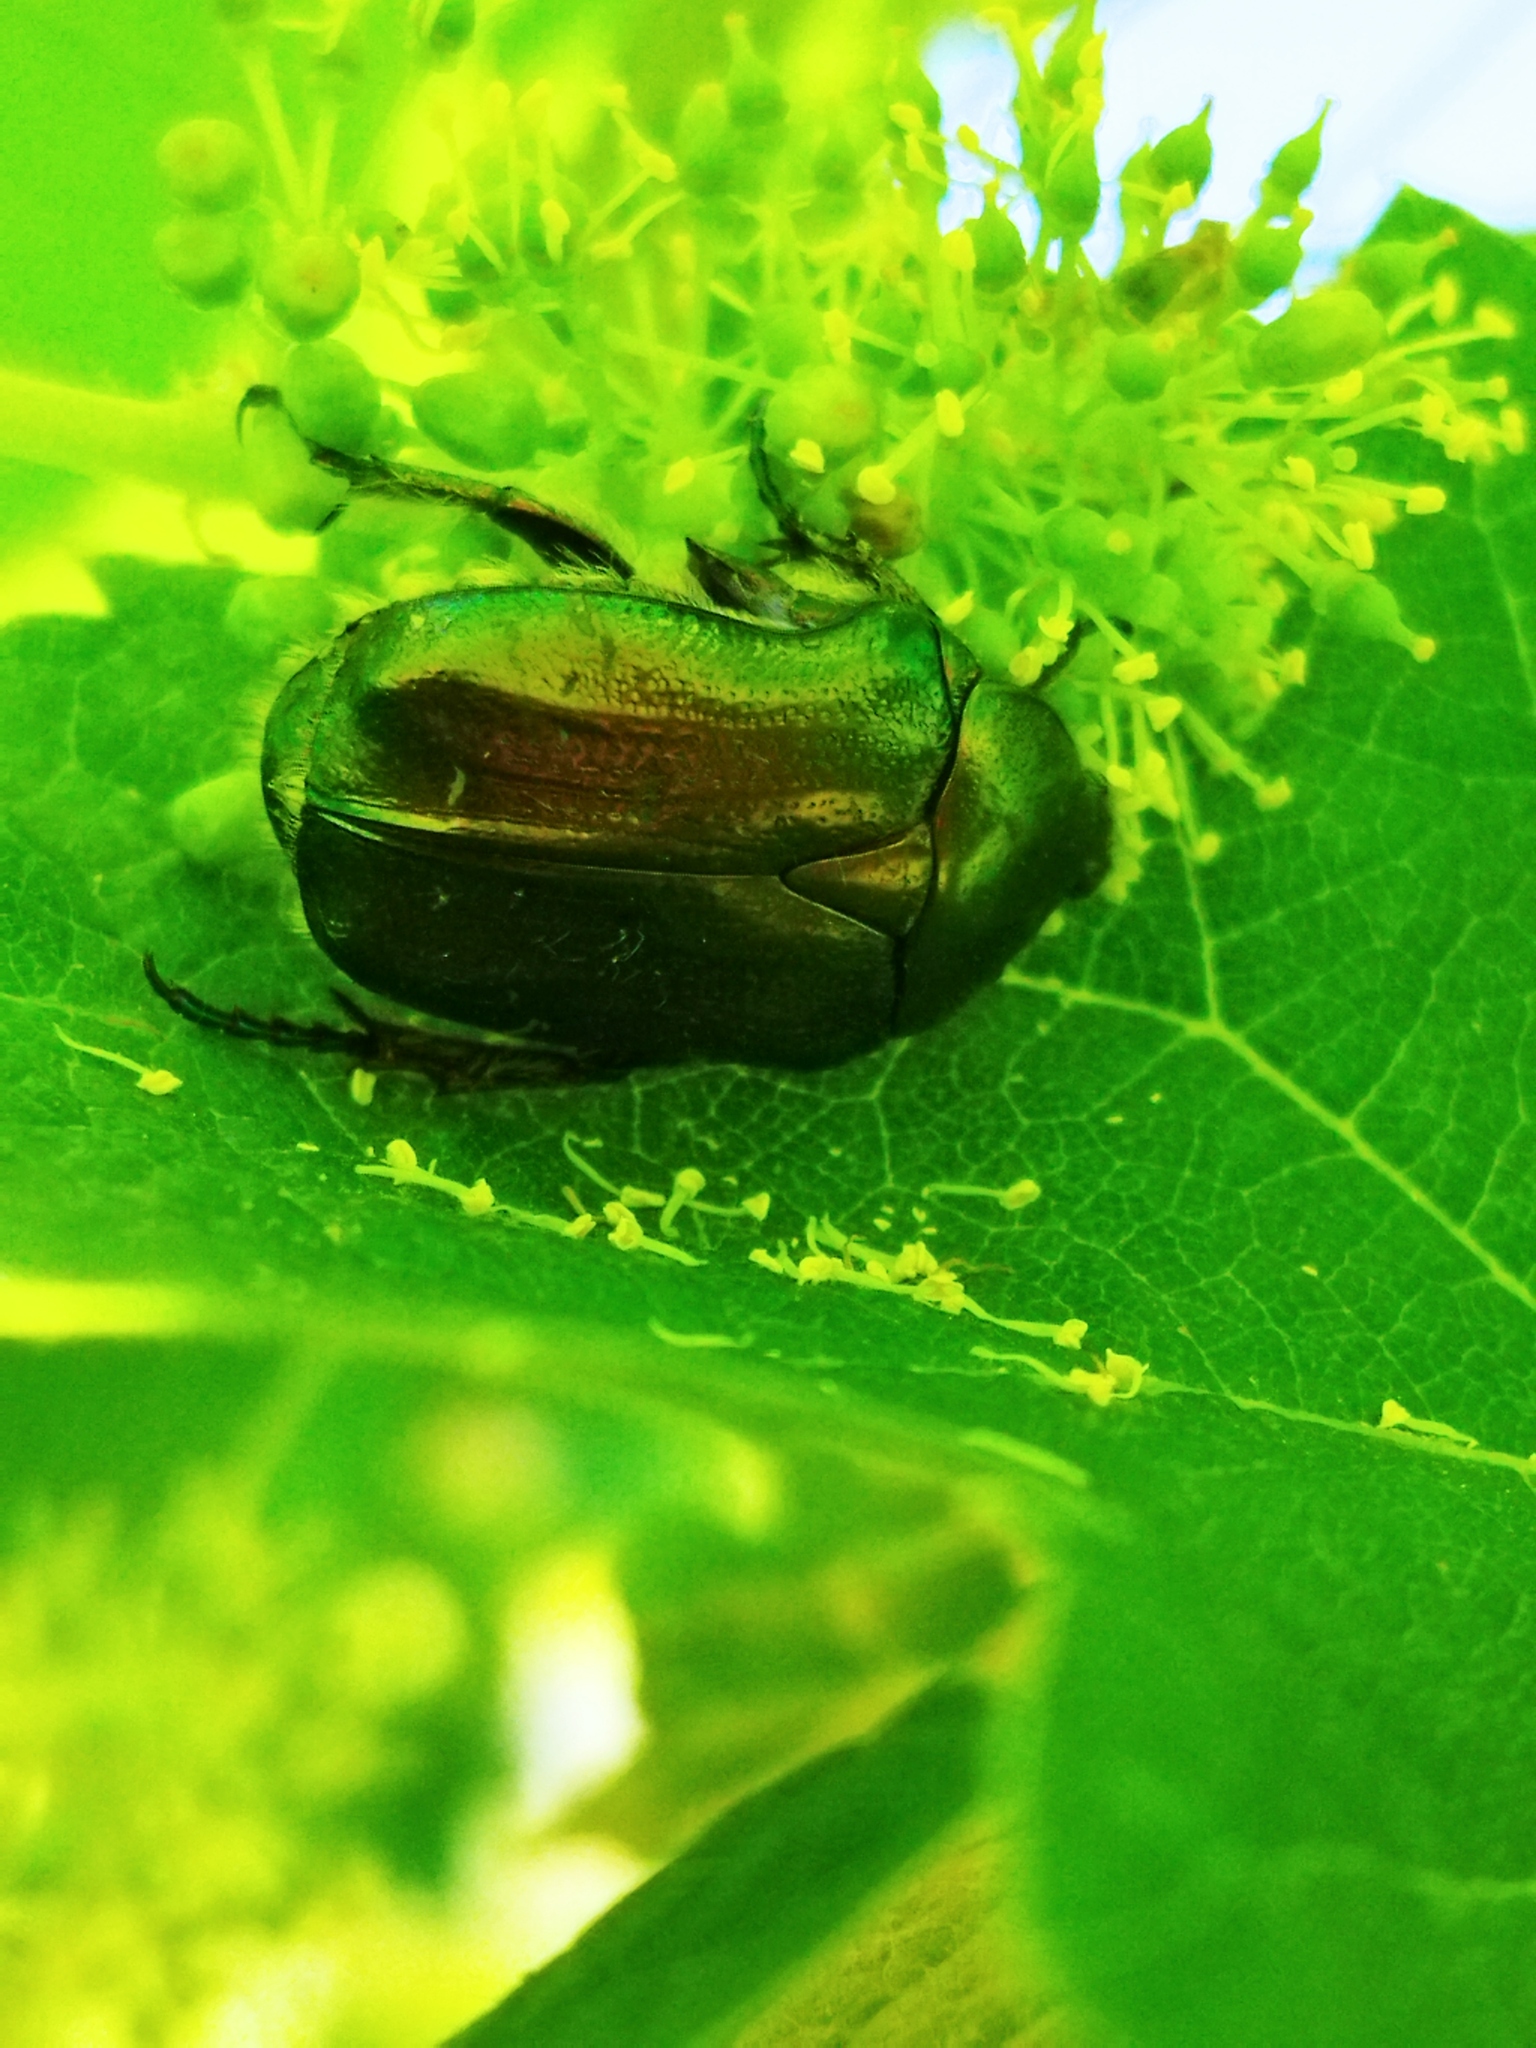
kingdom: Animalia
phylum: Arthropoda
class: Insecta
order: Coleoptera
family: Scarabaeidae
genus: Cetonia
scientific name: Cetonia aurata
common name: Rose chafer
